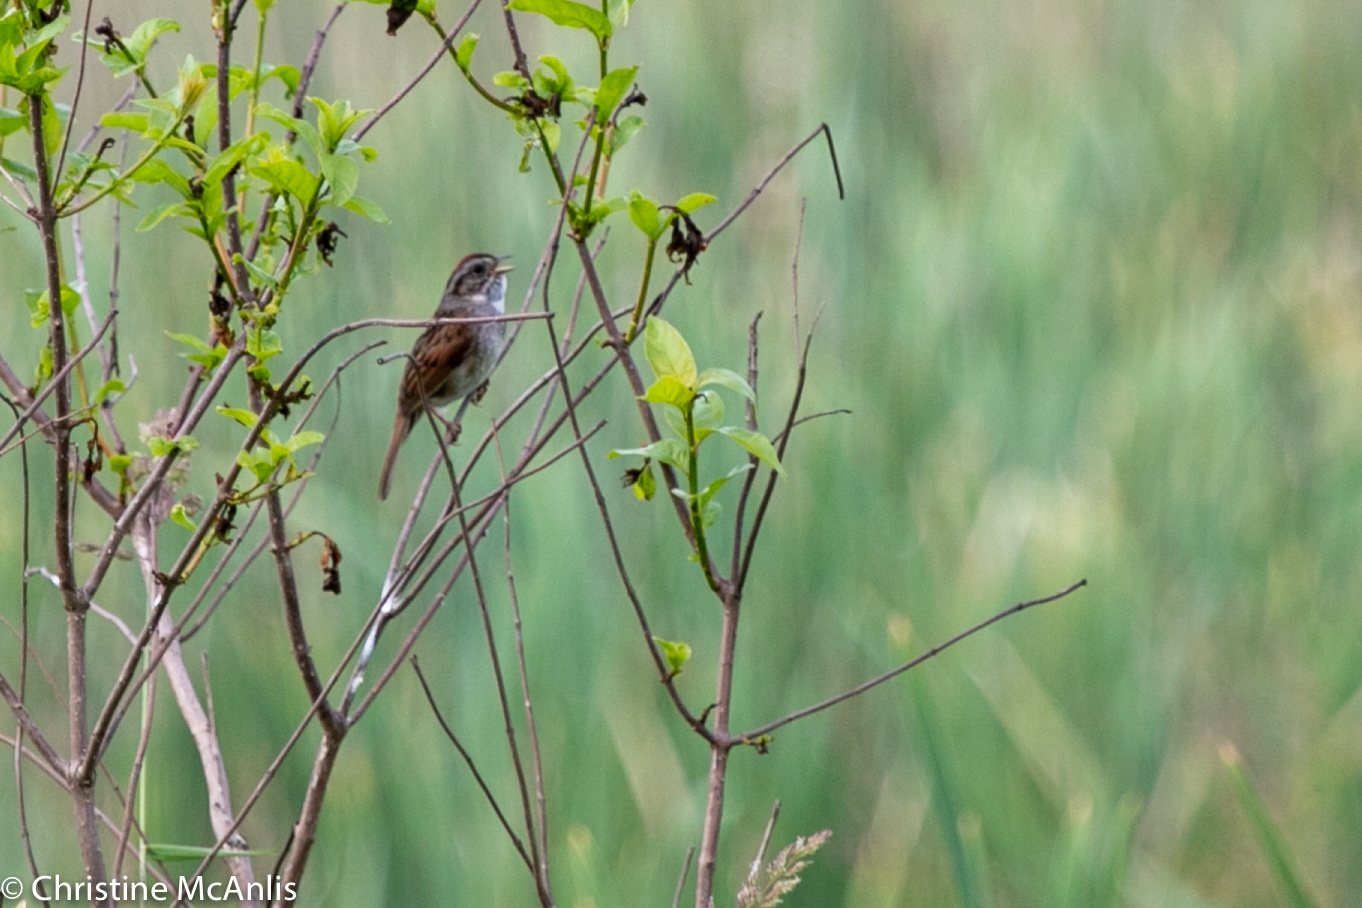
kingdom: Animalia
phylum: Chordata
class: Aves
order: Passeriformes
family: Passerellidae
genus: Melospiza
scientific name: Melospiza georgiana
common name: Swamp sparrow
